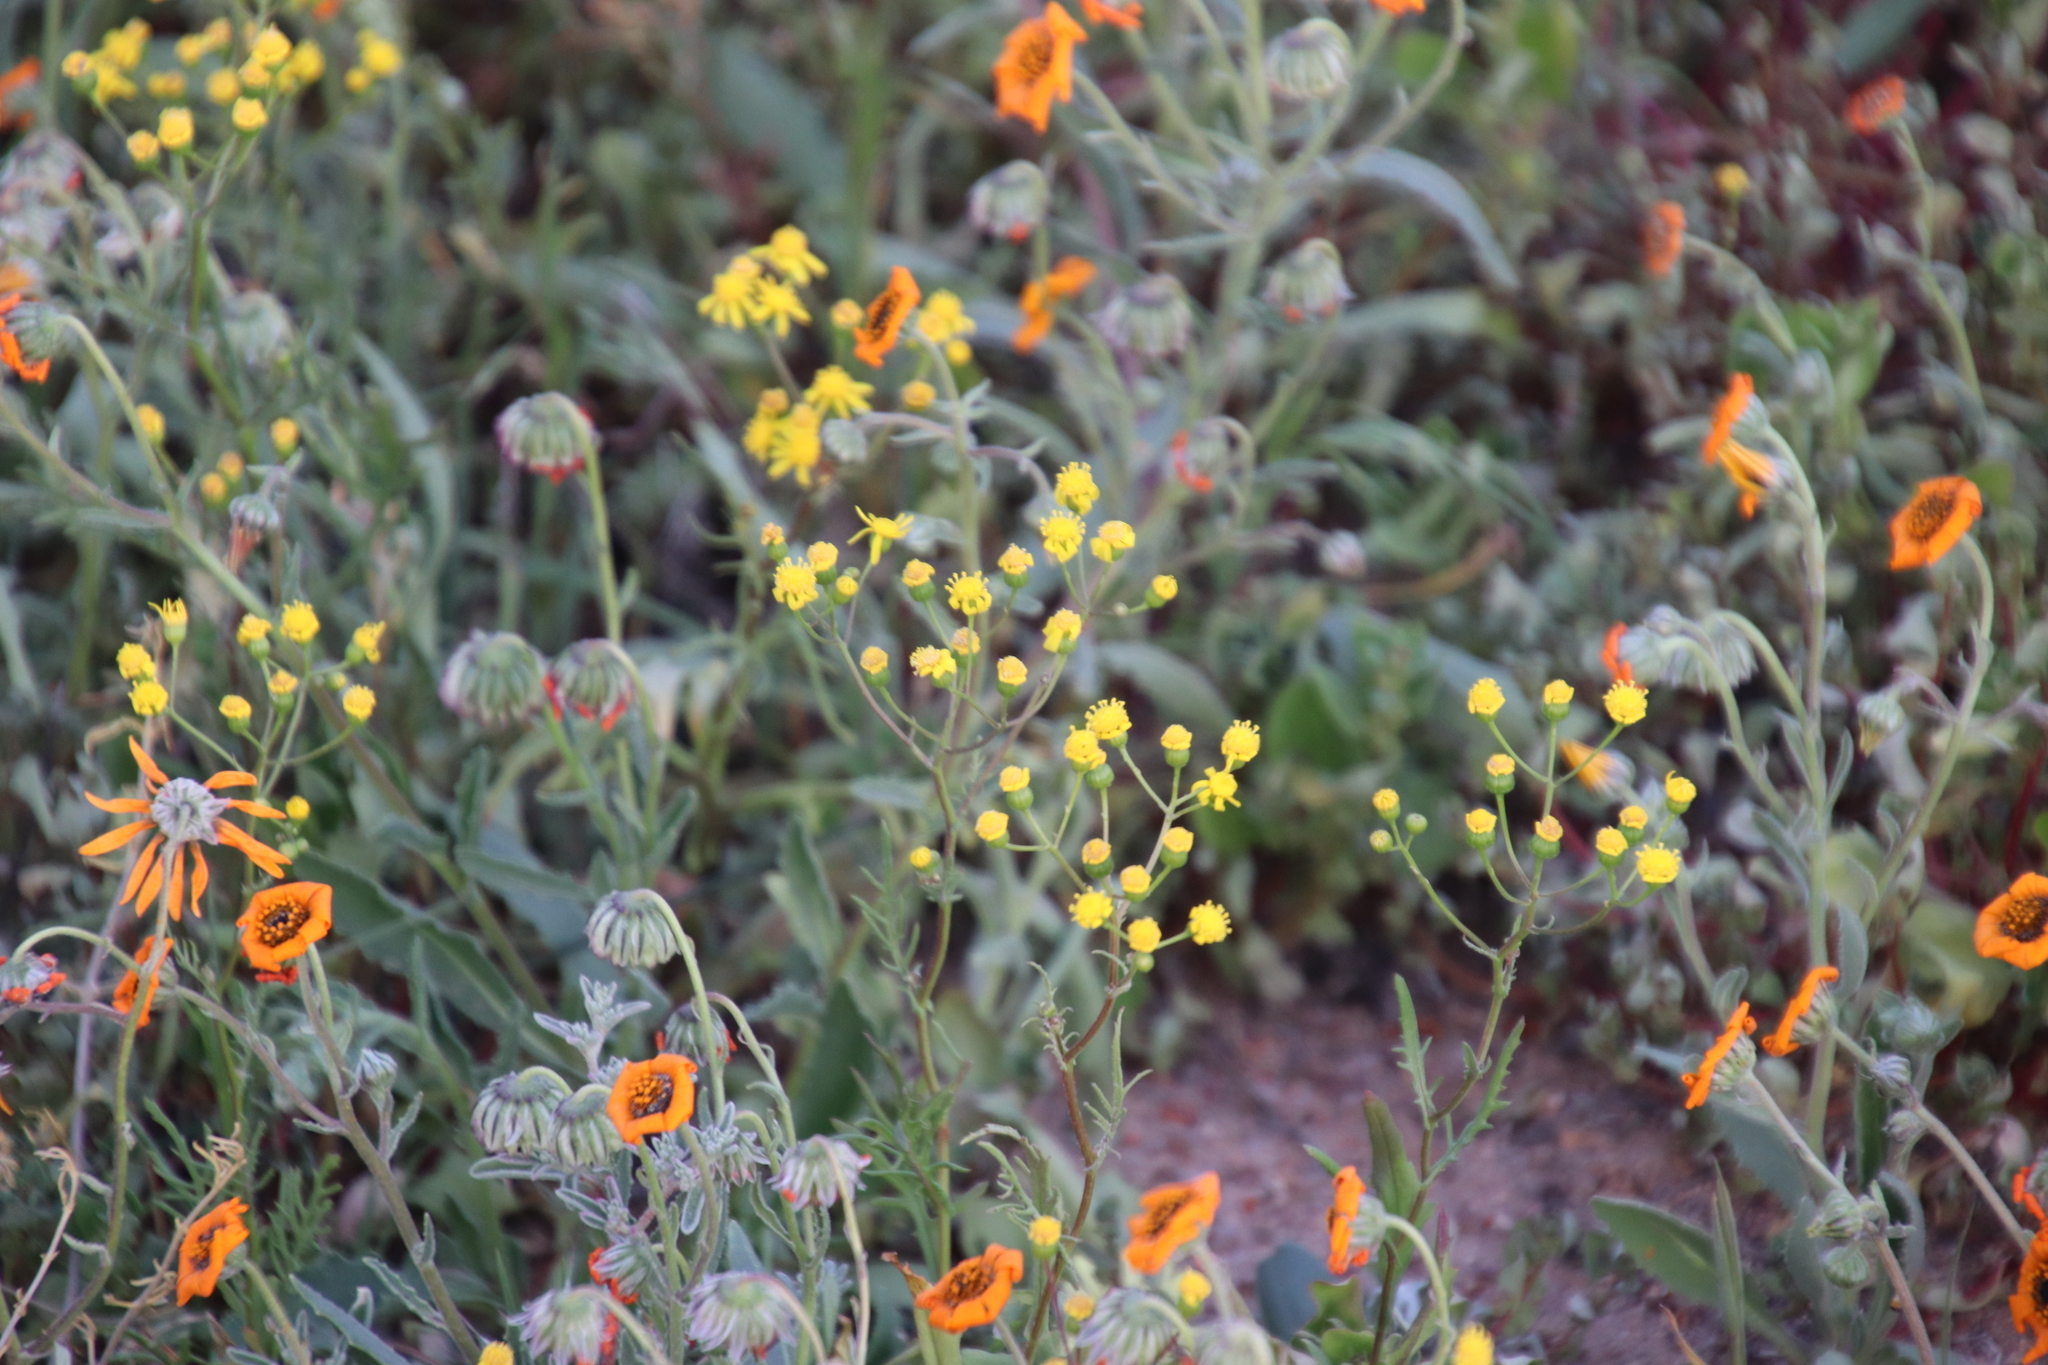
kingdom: Plantae
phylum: Tracheophyta
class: Magnoliopsida
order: Asterales
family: Asteraceae
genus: Senecio
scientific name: Senecio abruptus
